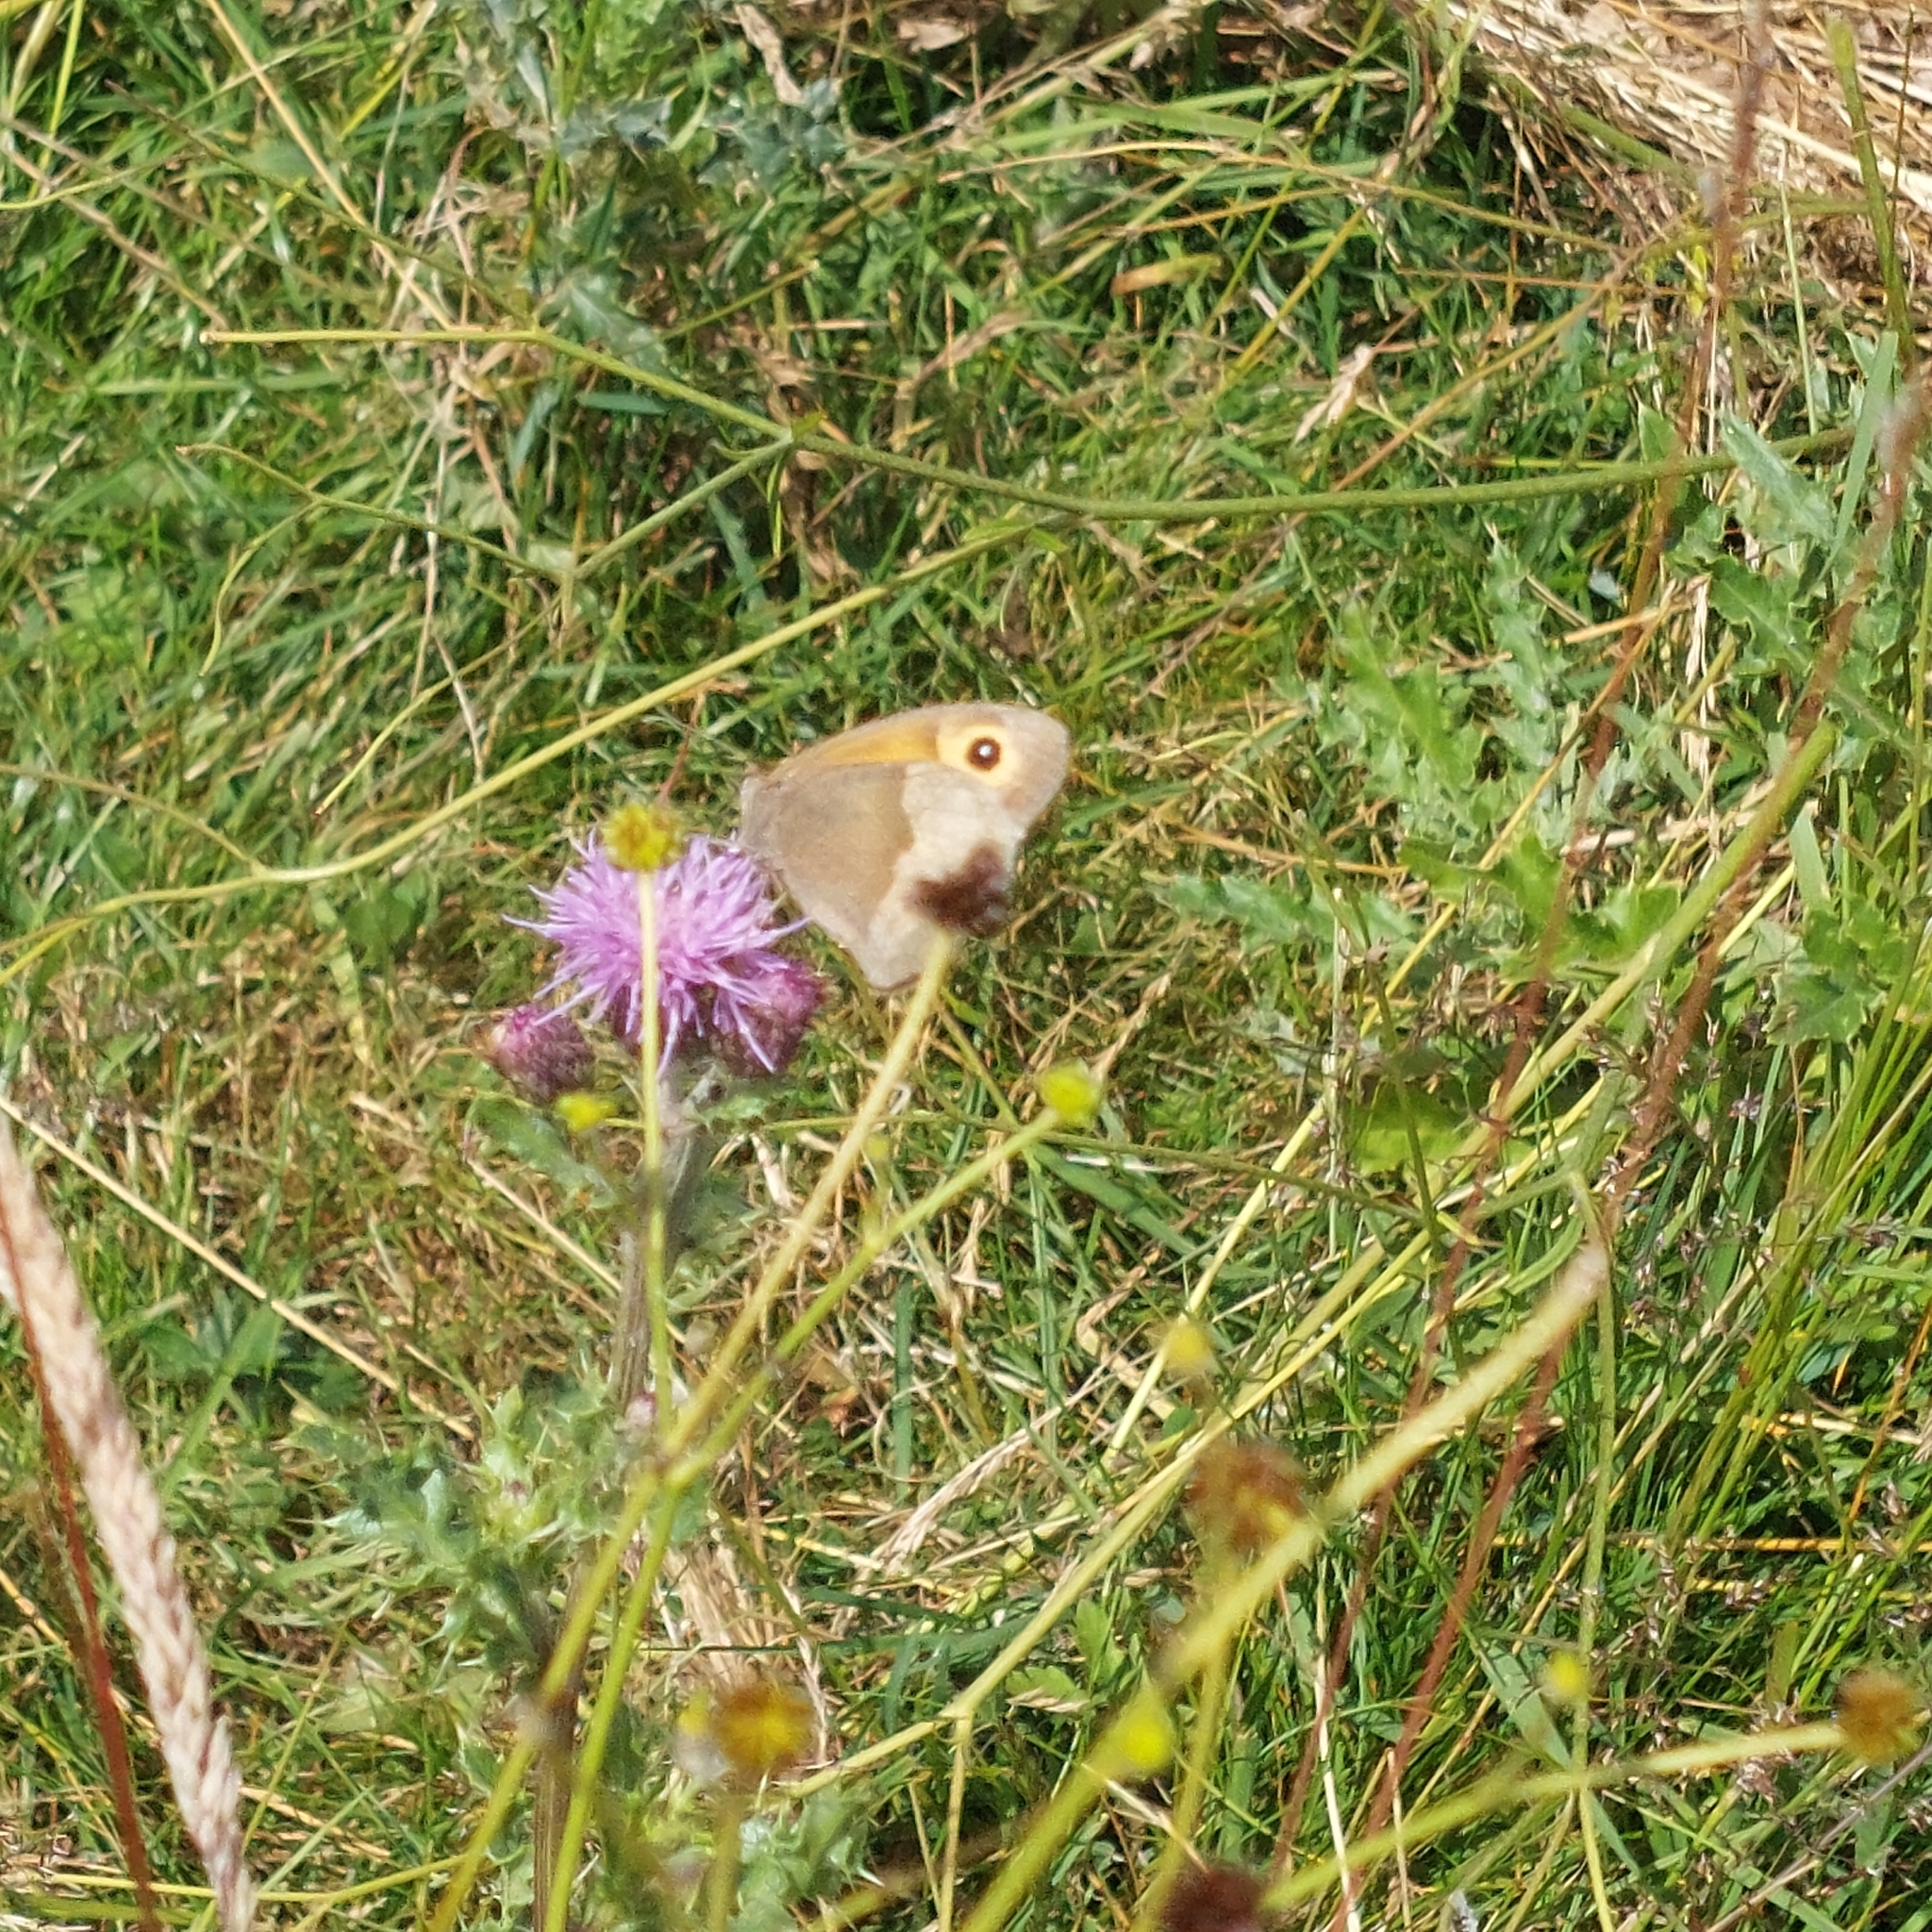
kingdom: Animalia
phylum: Arthropoda
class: Insecta
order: Lepidoptera
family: Nymphalidae
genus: Maniola
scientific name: Maniola jurtina
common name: Meadow brown
